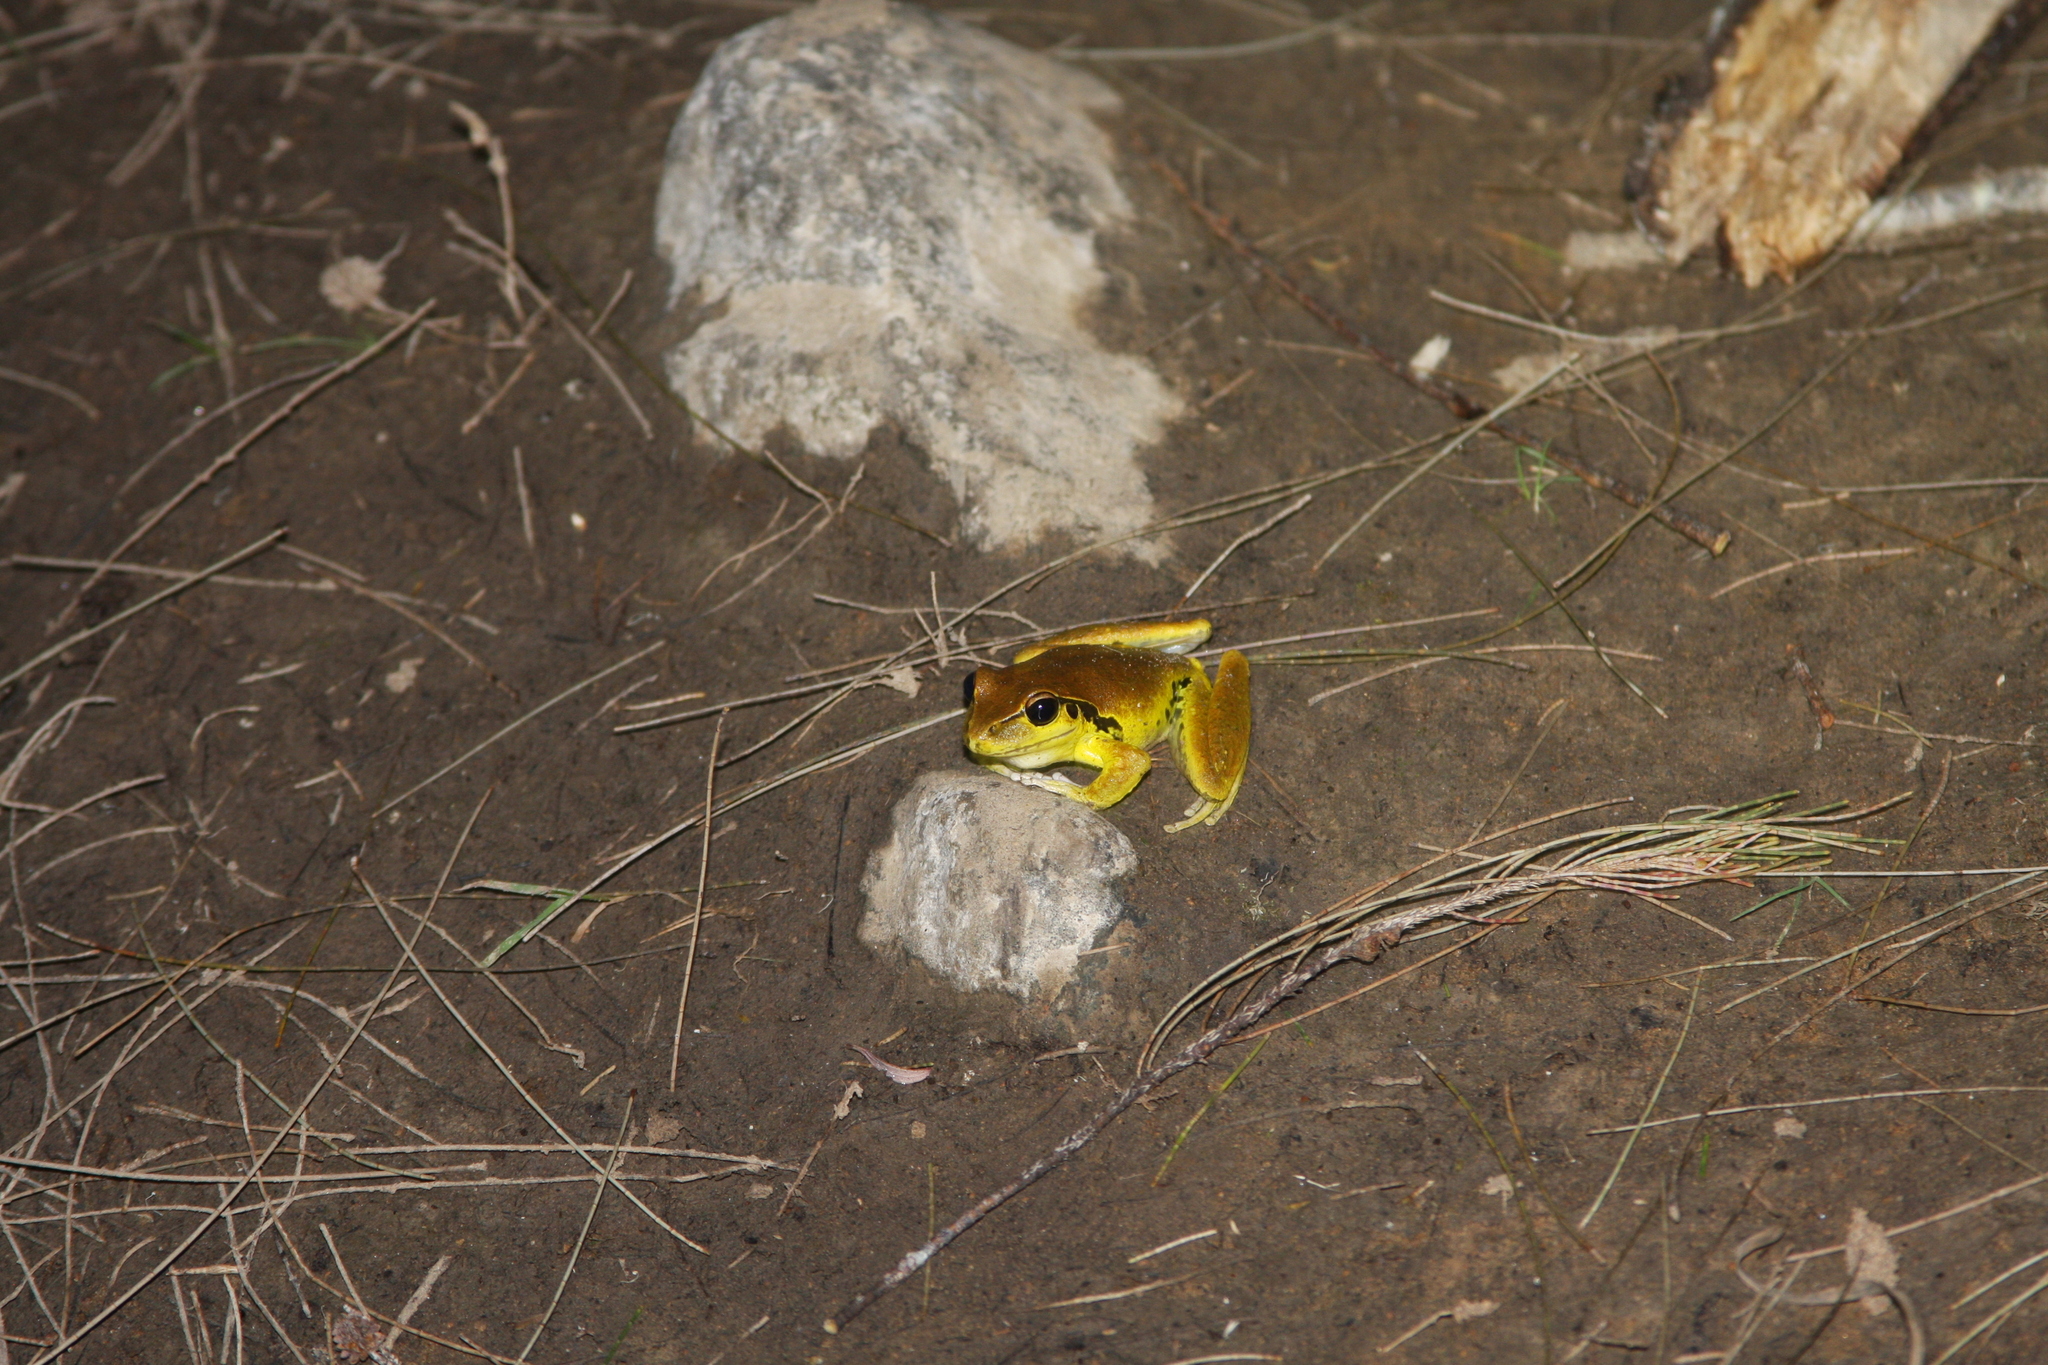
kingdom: Animalia
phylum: Chordata
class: Amphibia
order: Anura
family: Pelodryadidae
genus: Ranoidea
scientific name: Ranoidea lesueurii
